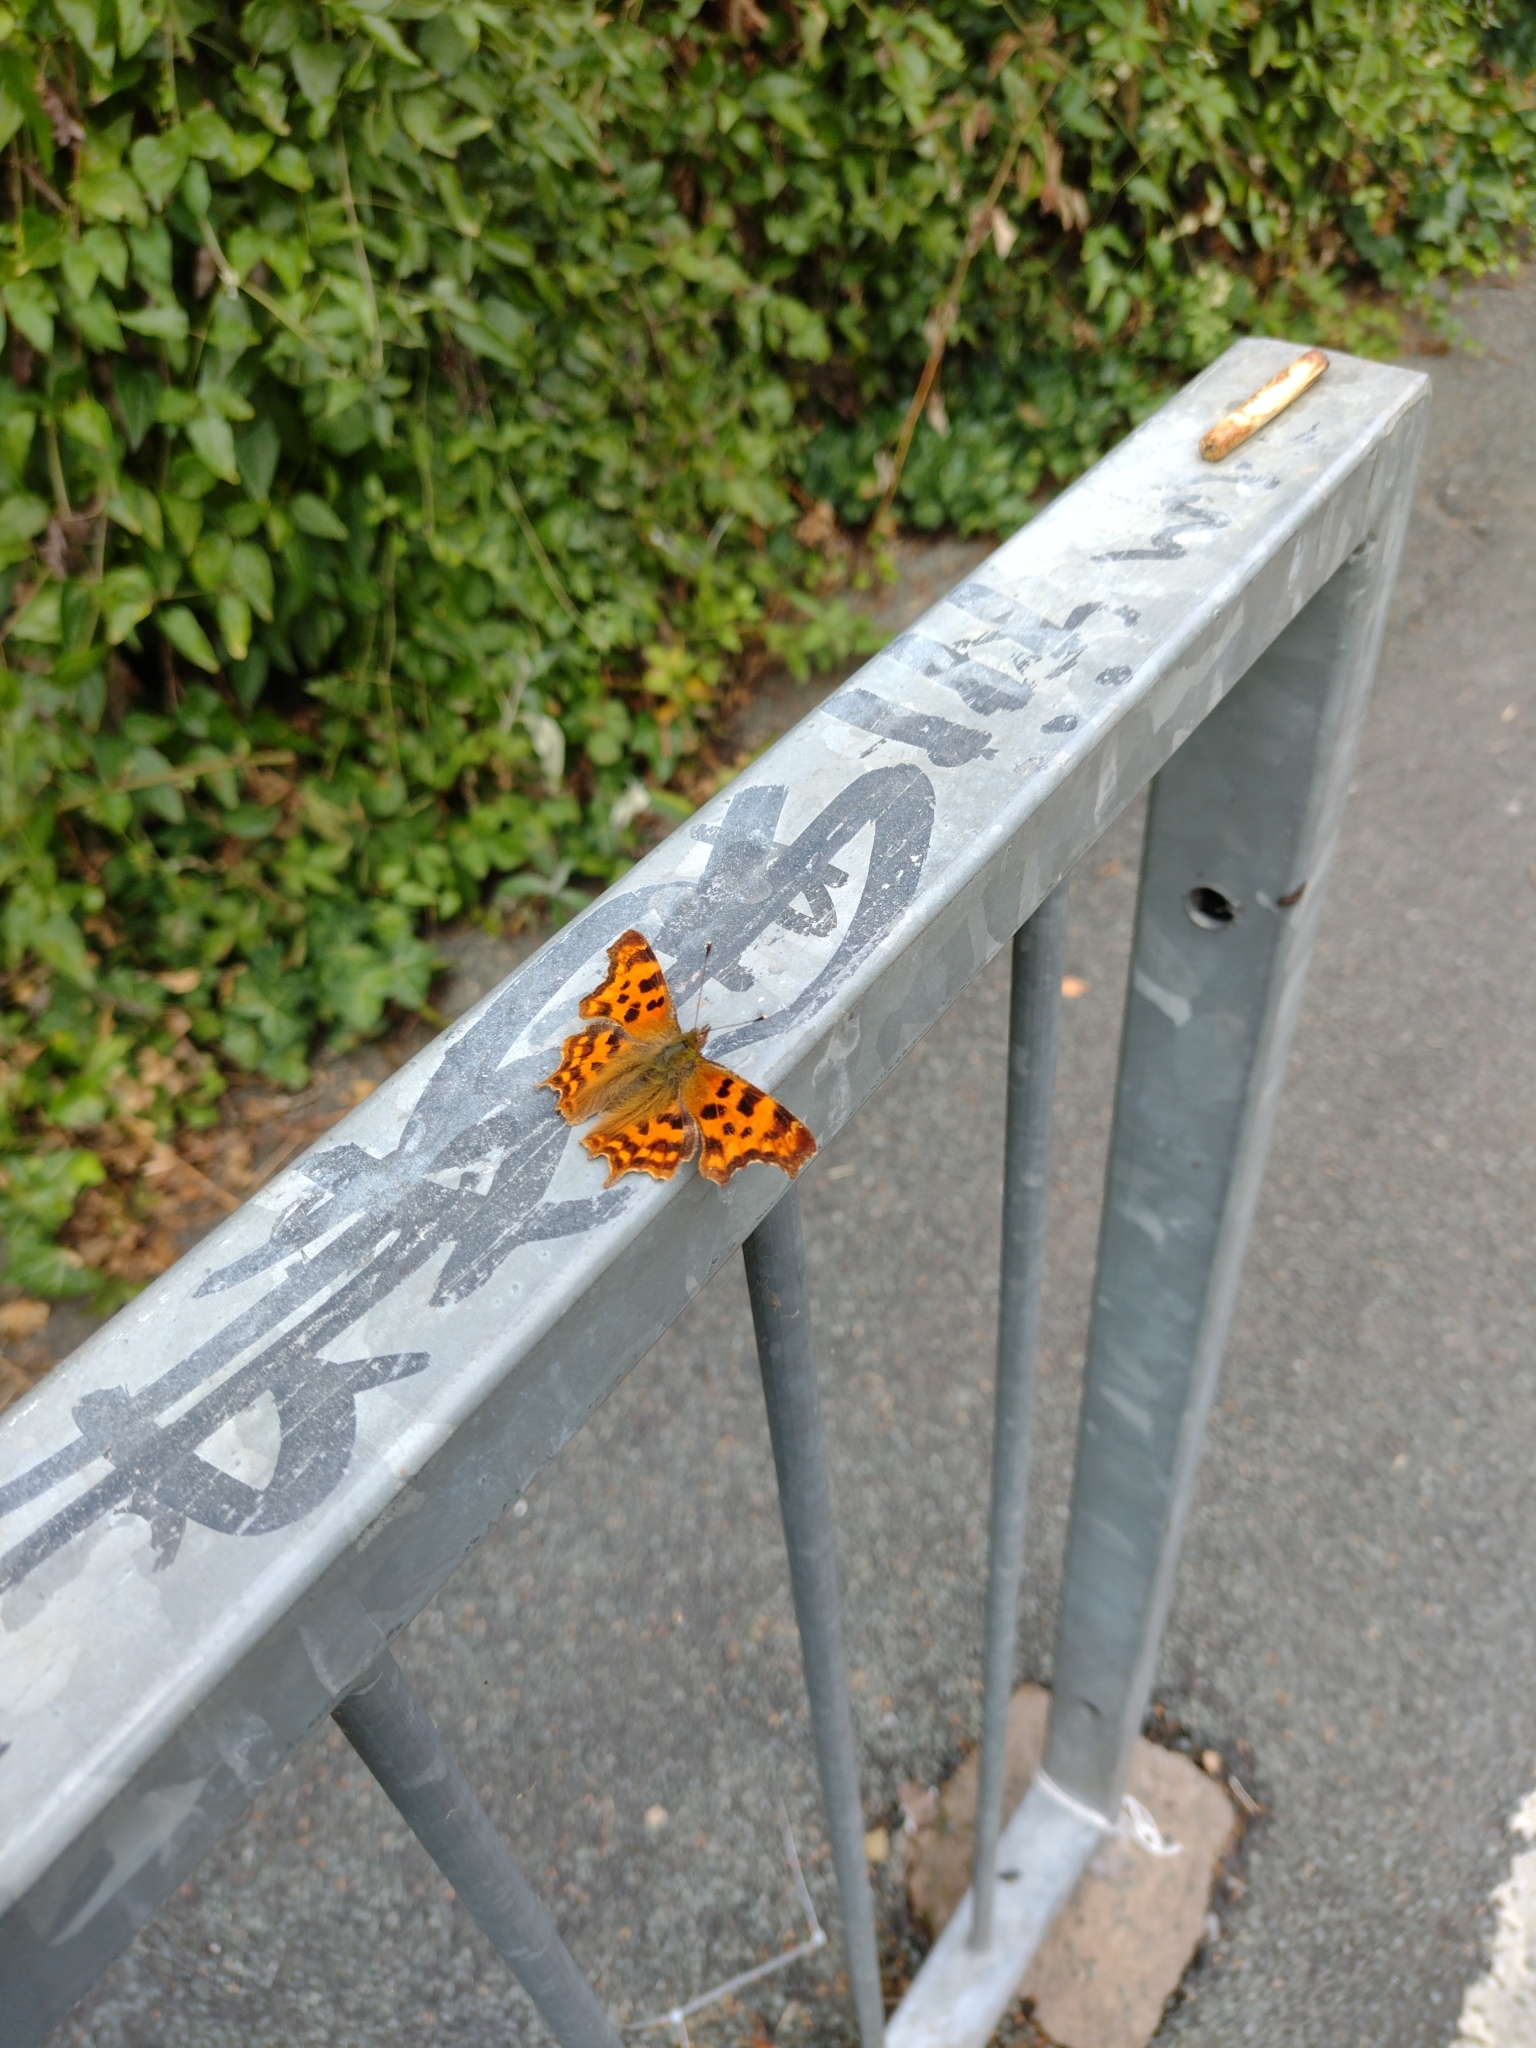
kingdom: Animalia
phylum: Arthropoda
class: Insecta
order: Lepidoptera
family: Nymphalidae
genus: Polygonia
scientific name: Polygonia c-album
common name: Comma
